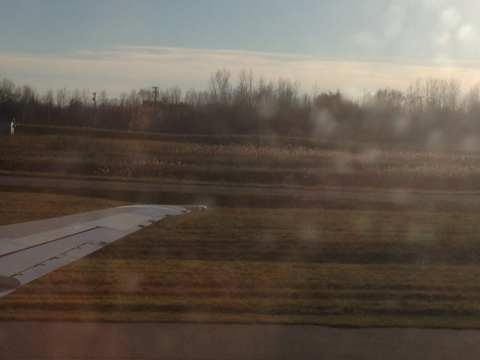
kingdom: Plantae
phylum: Tracheophyta
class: Liliopsida
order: Poales
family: Poaceae
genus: Phragmites
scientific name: Phragmites australis
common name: Common reed
